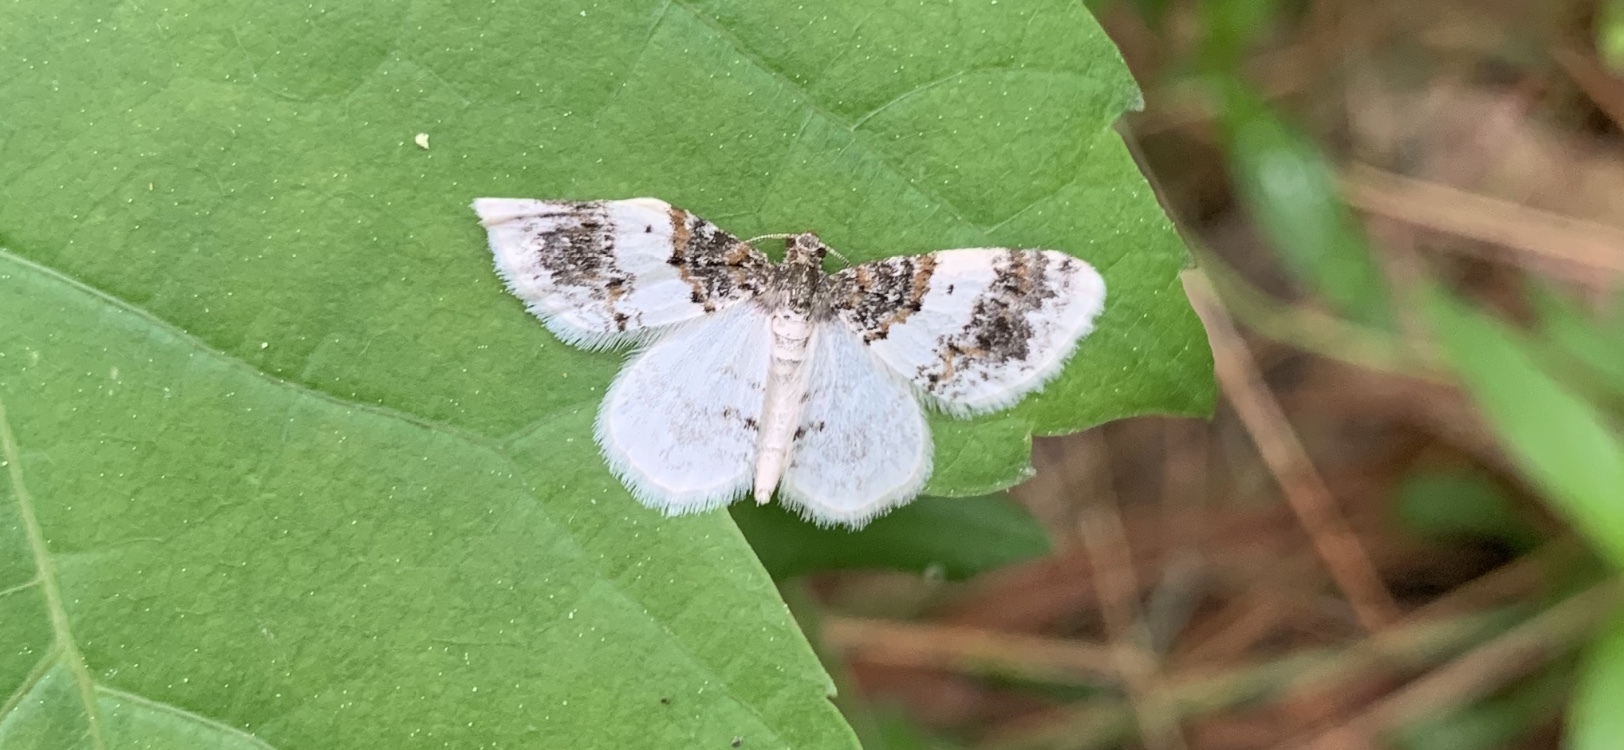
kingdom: Animalia
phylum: Arthropoda
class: Insecta
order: Lepidoptera
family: Geometridae
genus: Hydrelia
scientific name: Hydrelia condensata
